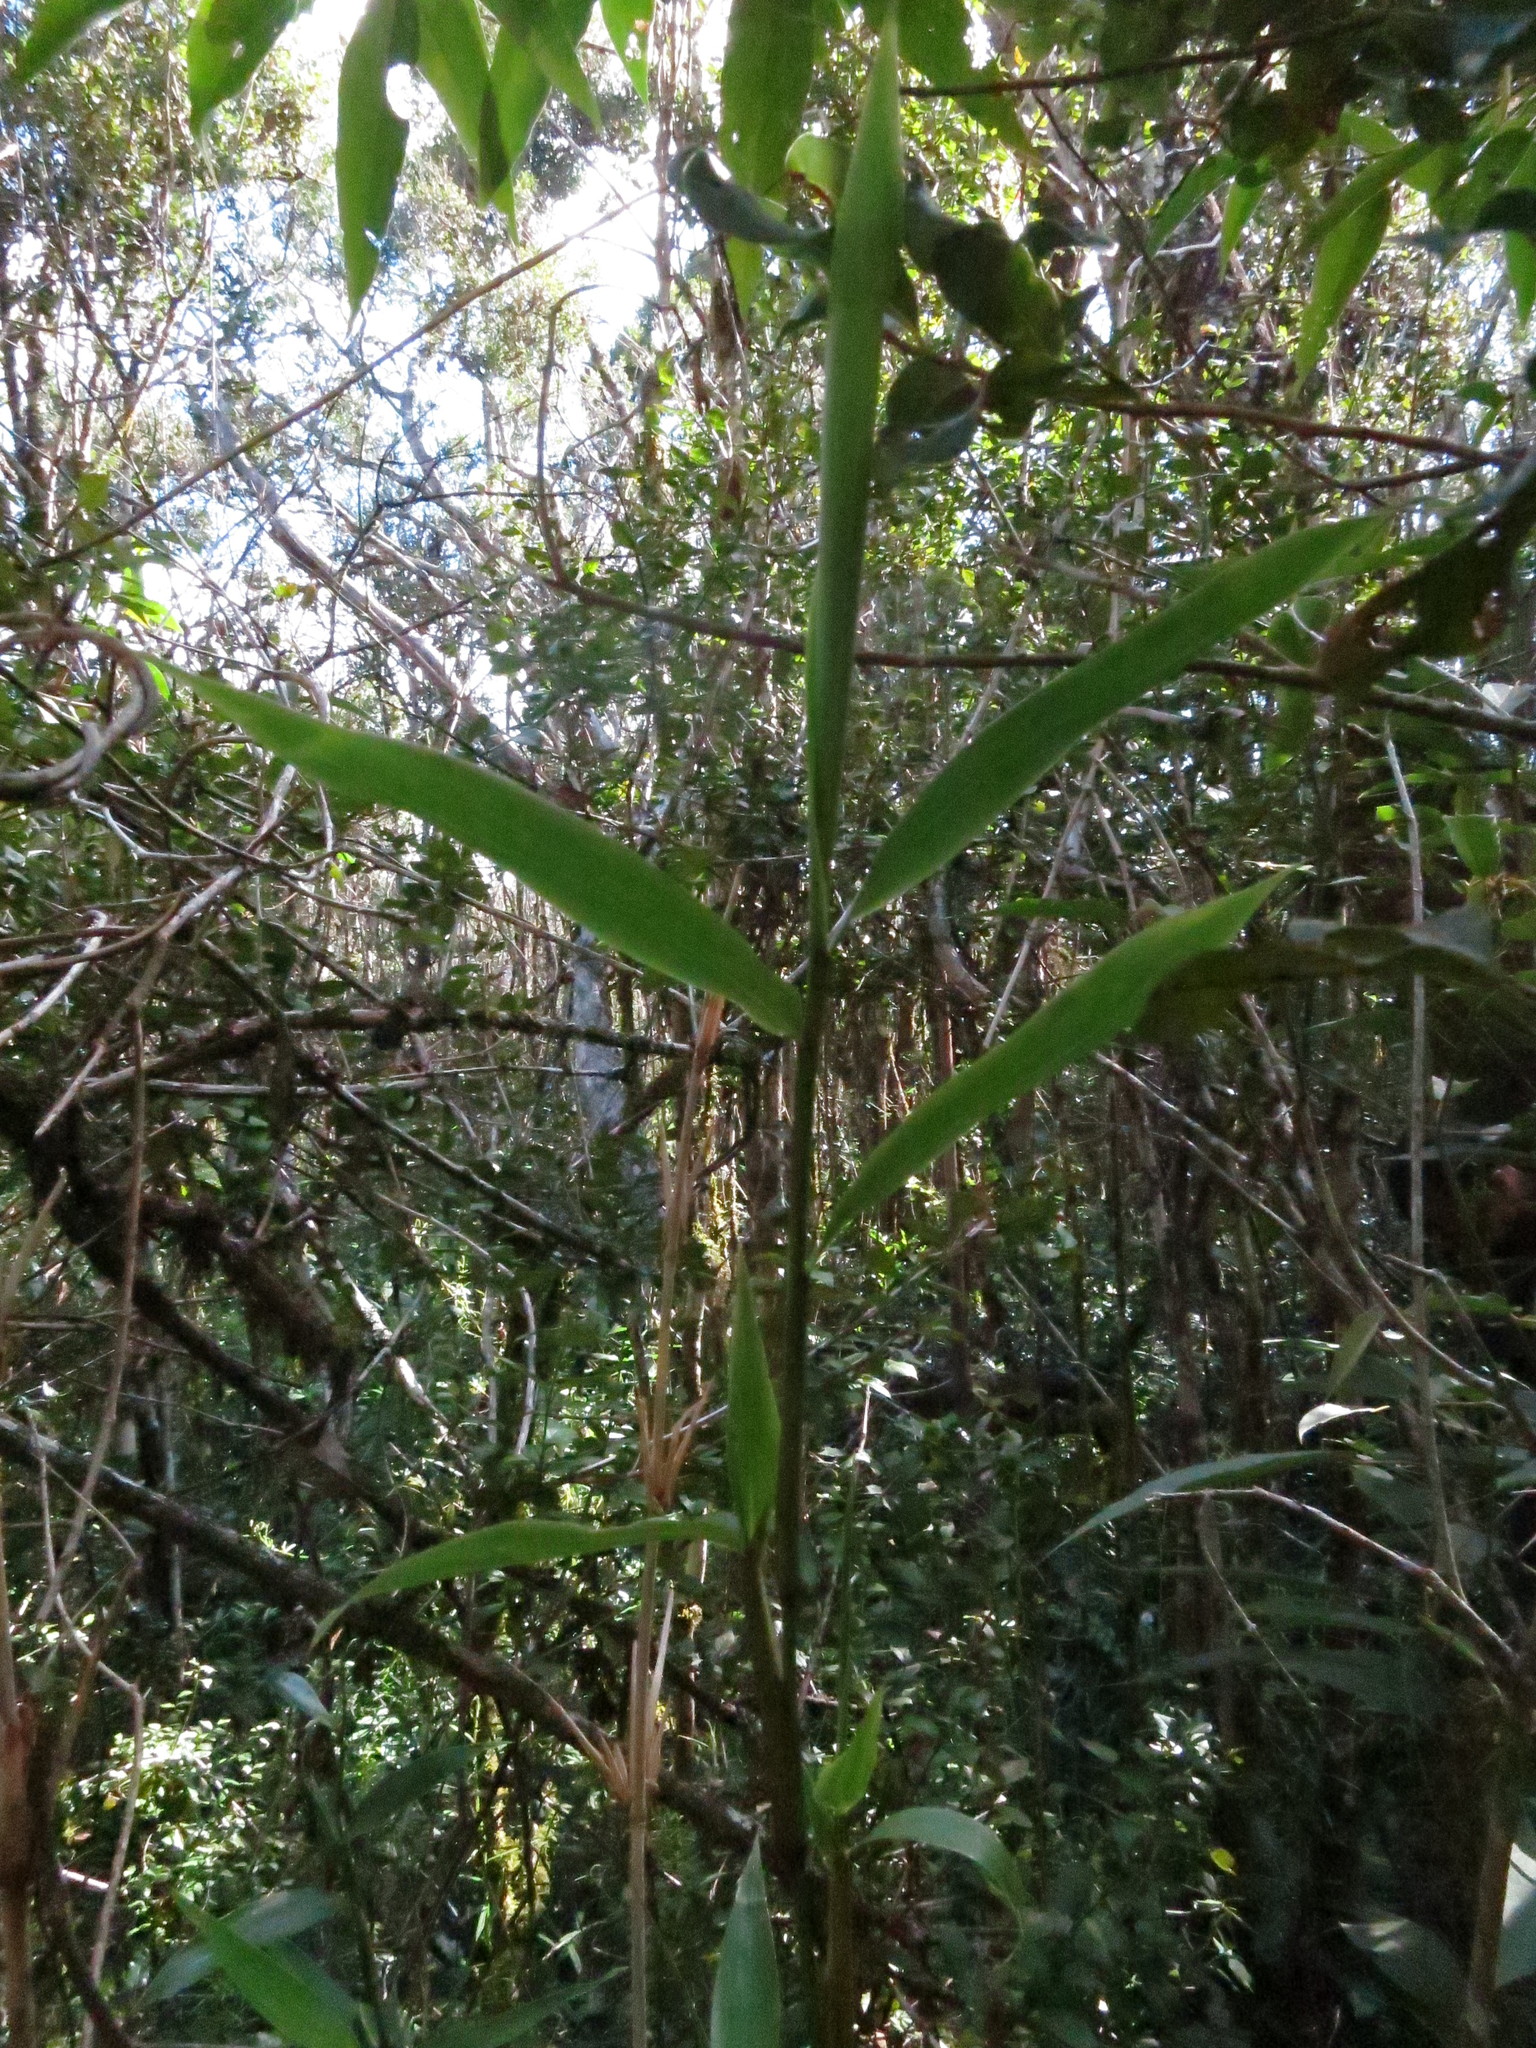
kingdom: Plantae
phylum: Tracheophyta
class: Liliopsida
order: Poales
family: Poaceae
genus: Oldeania
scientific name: Oldeania humbertii
